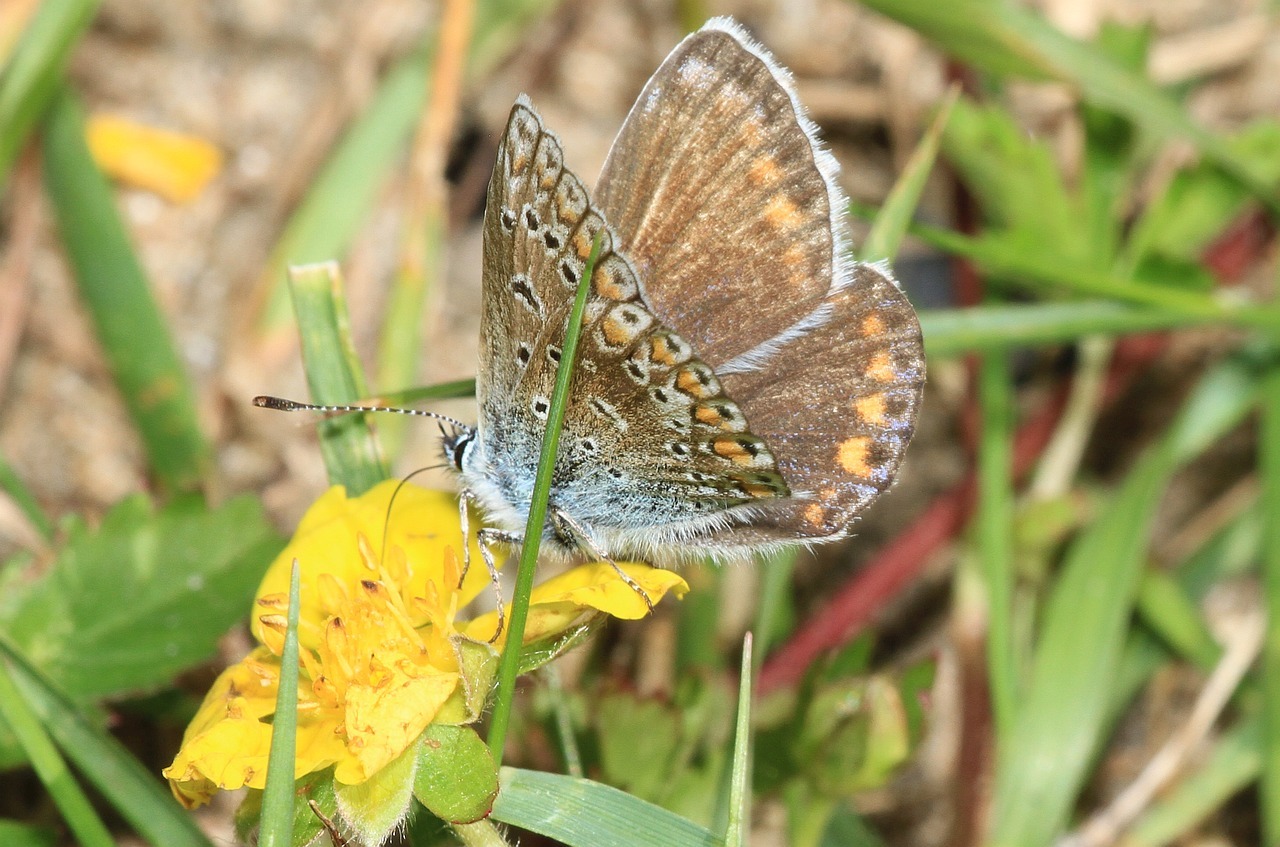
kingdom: Animalia
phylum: Arthropoda
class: Insecta
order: Lepidoptera
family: Lycaenidae
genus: Polyommatus
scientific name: Polyommatus icarus
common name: Common blue
